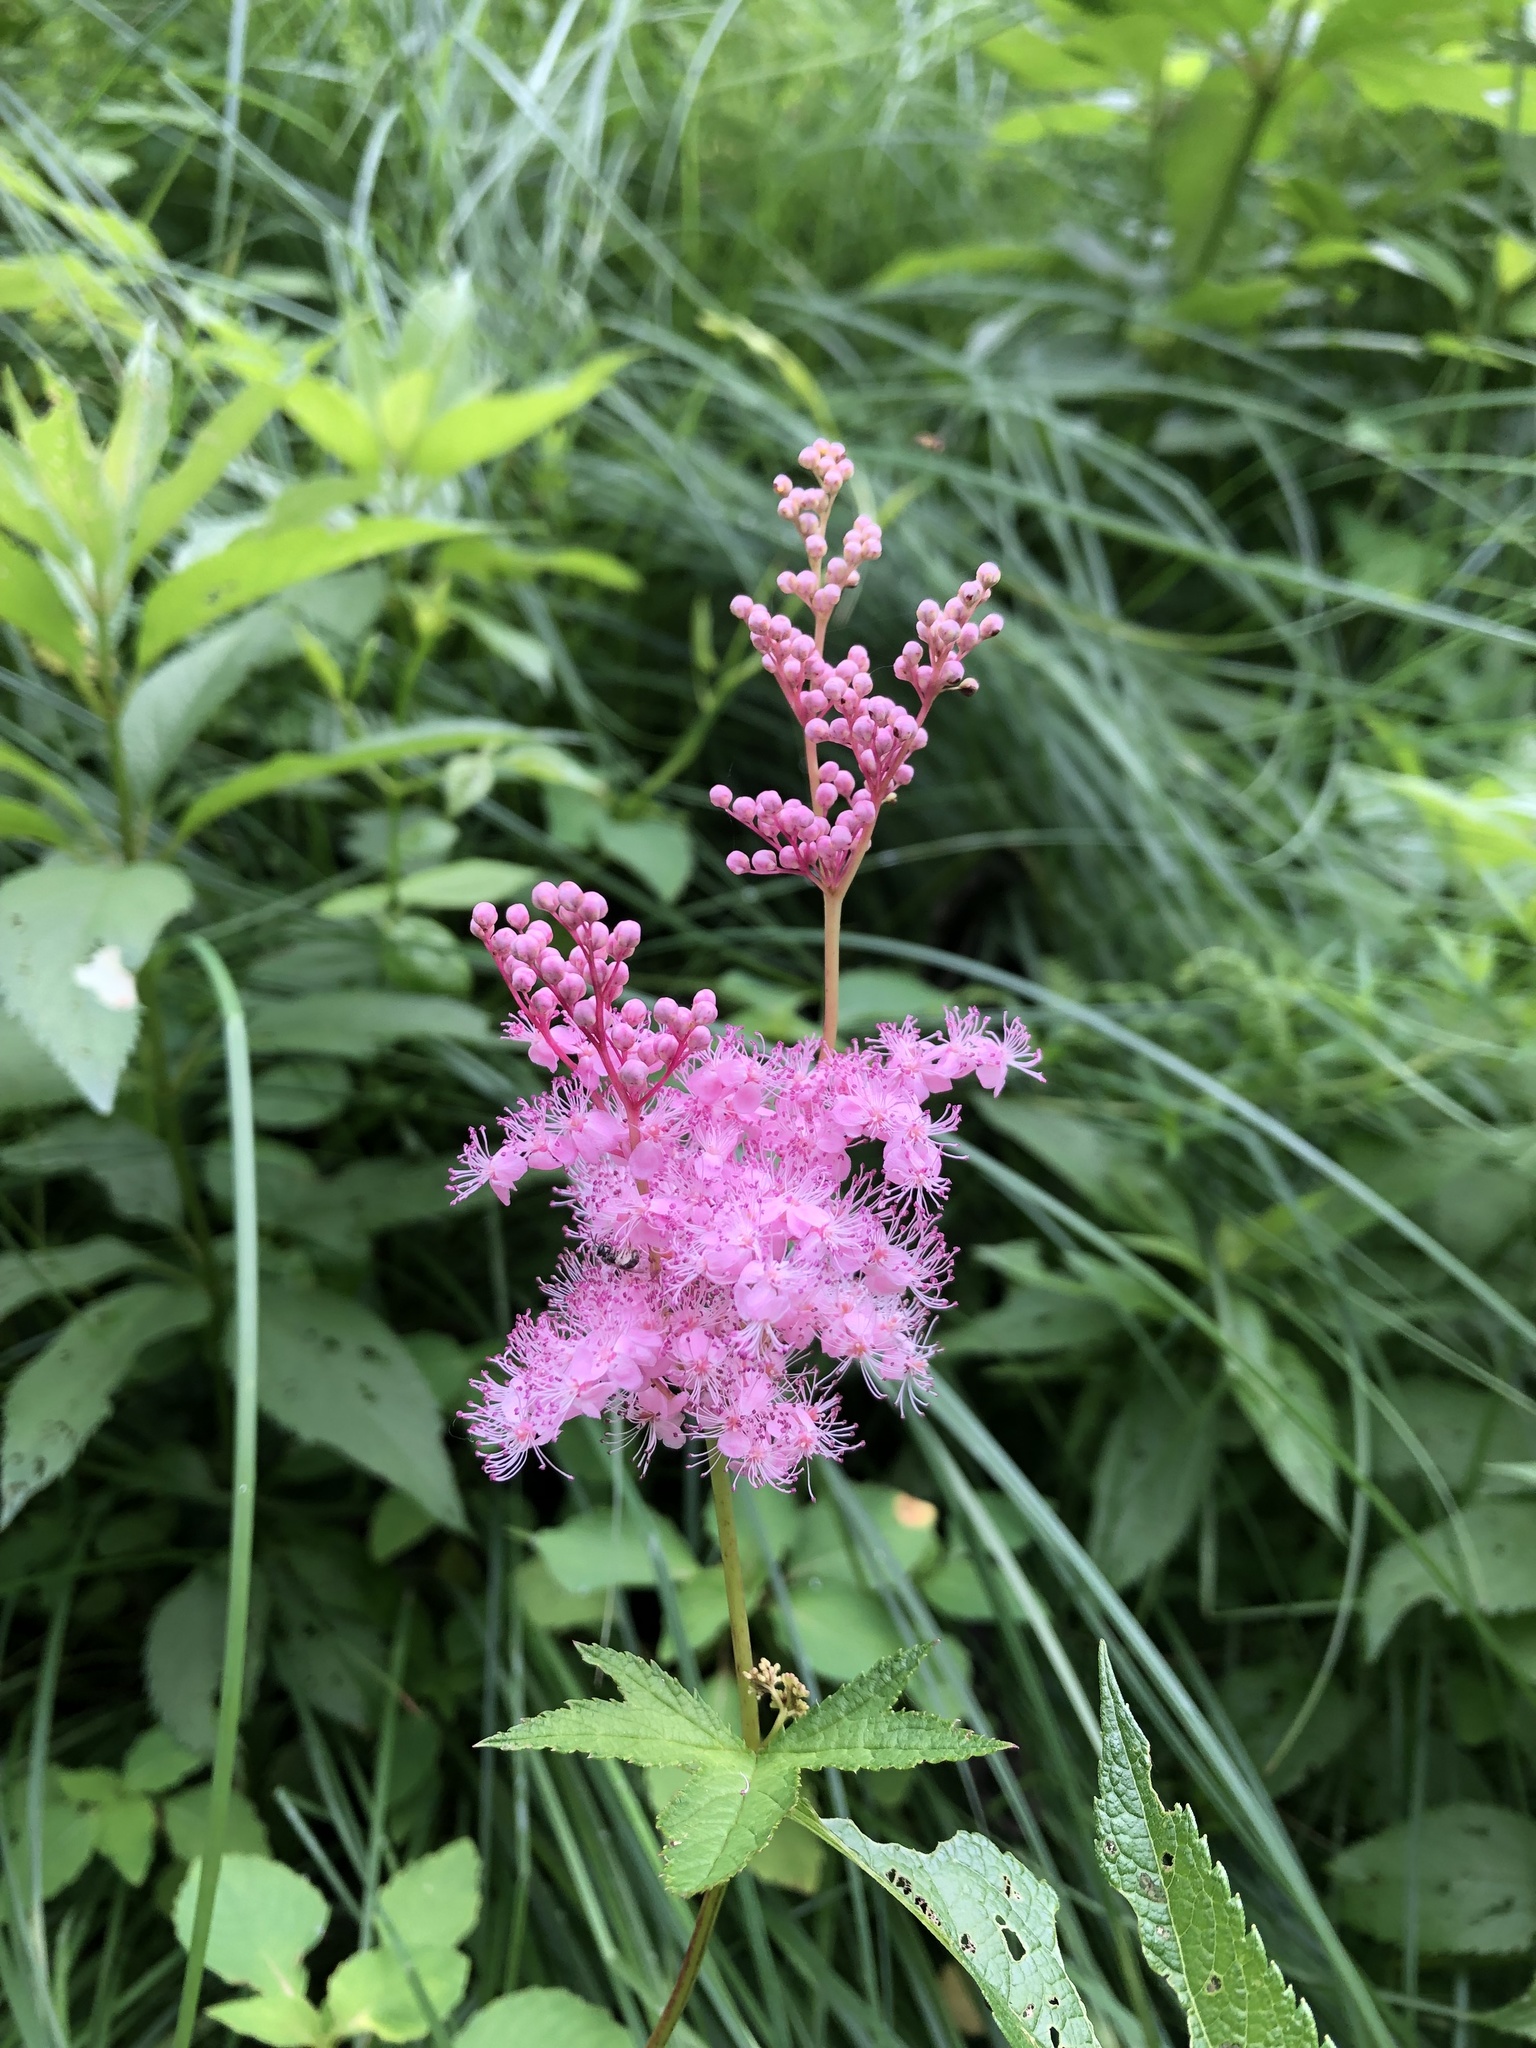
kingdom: Plantae
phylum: Tracheophyta
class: Magnoliopsida
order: Rosales
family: Rosaceae
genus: Filipendula
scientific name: Filipendula rubra
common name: Queen-of-the-prairie
